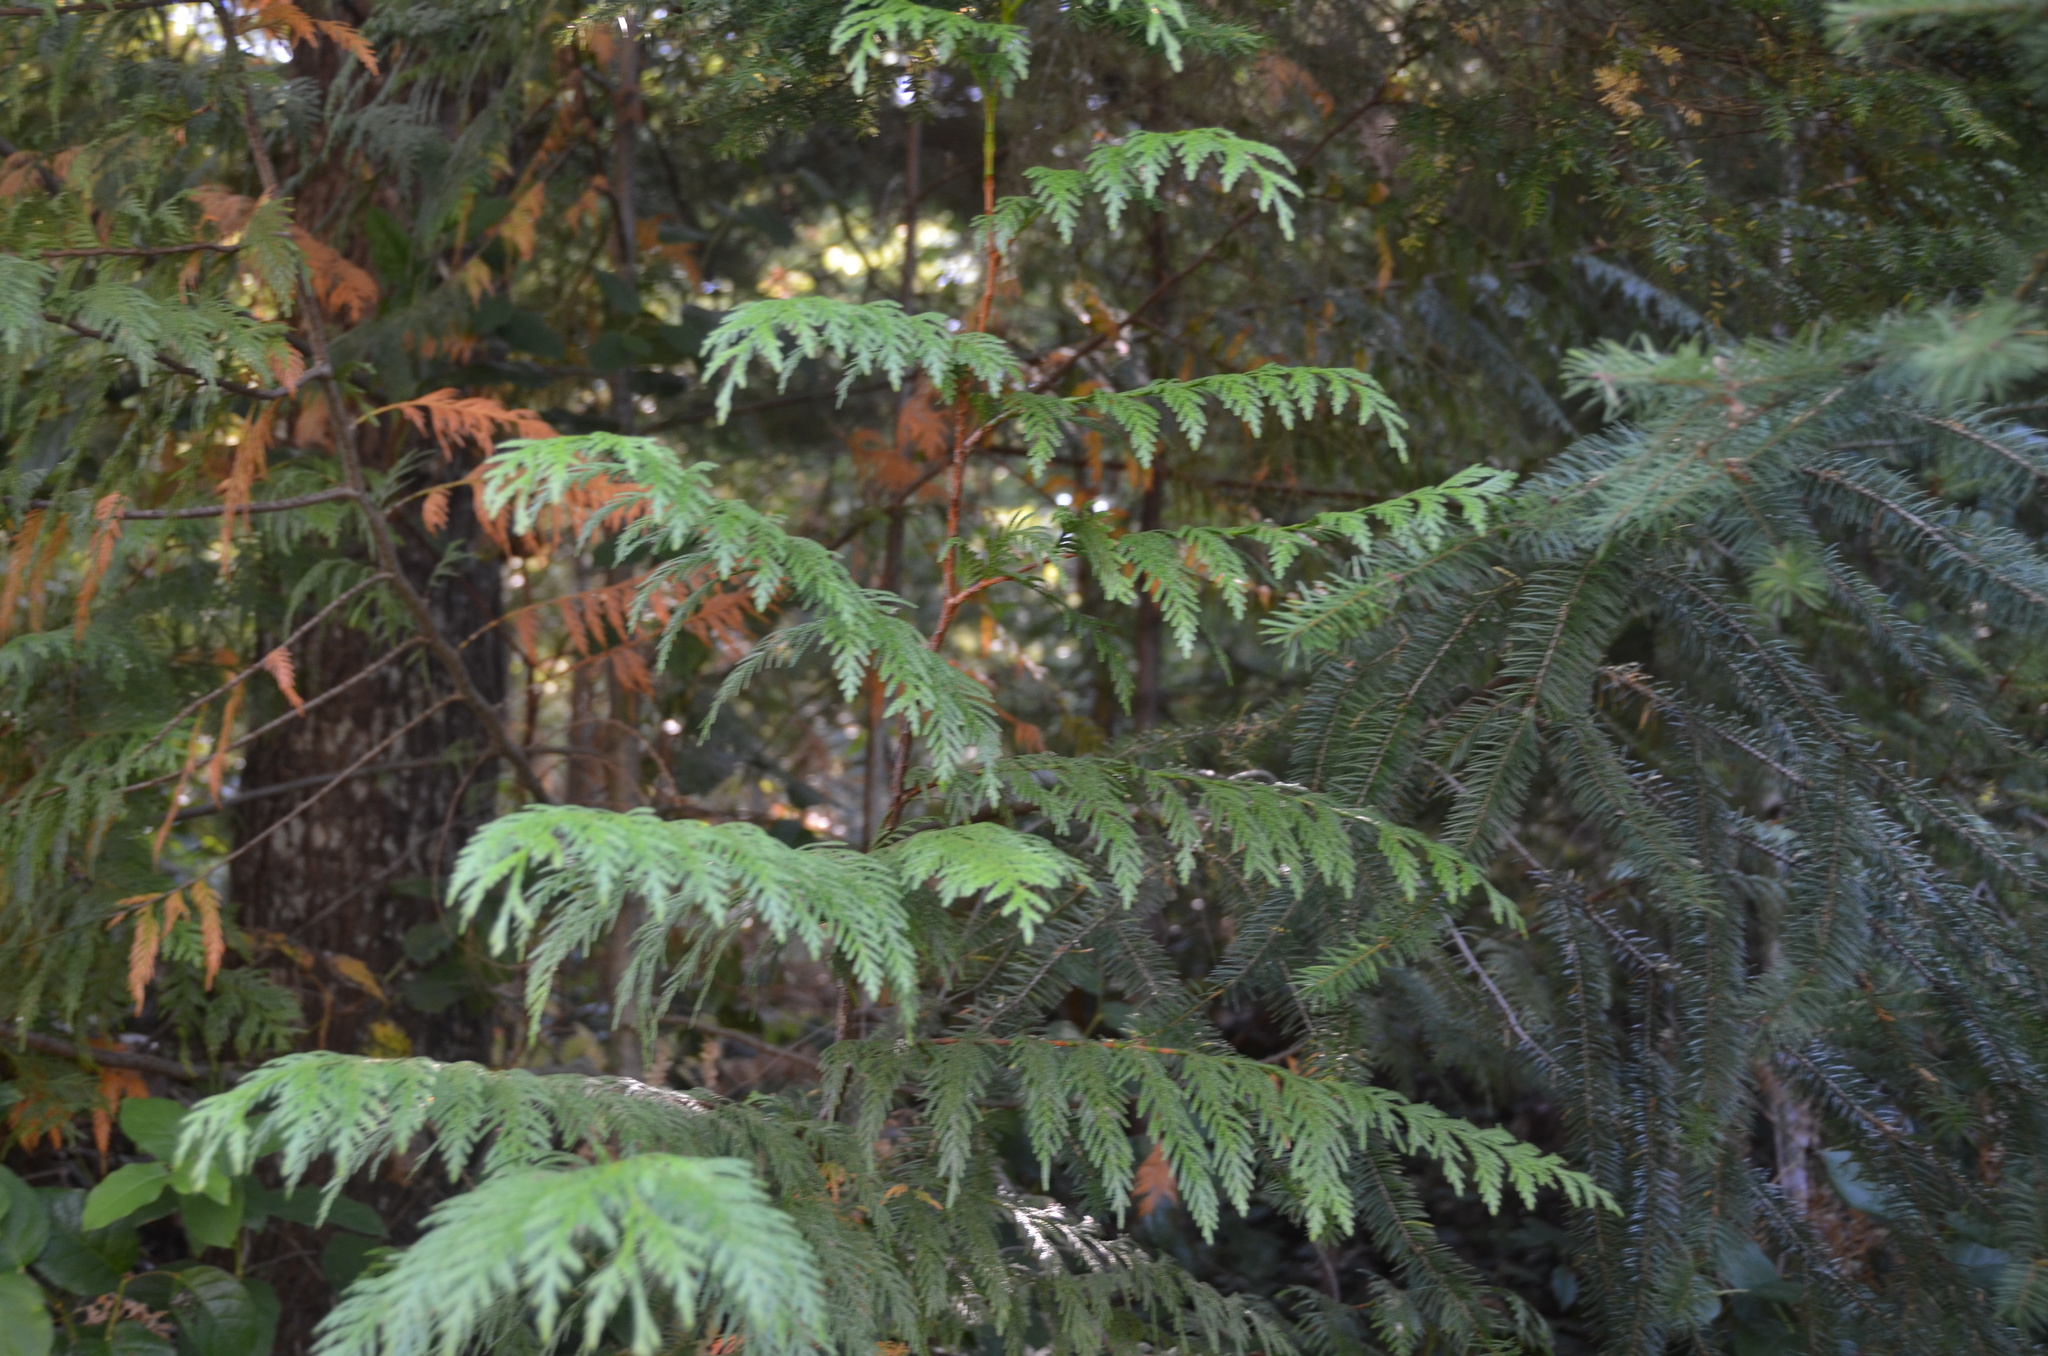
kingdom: Plantae
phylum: Tracheophyta
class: Pinopsida
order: Pinales
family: Cupressaceae
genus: Thuja
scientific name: Thuja plicata
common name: Western red-cedar
